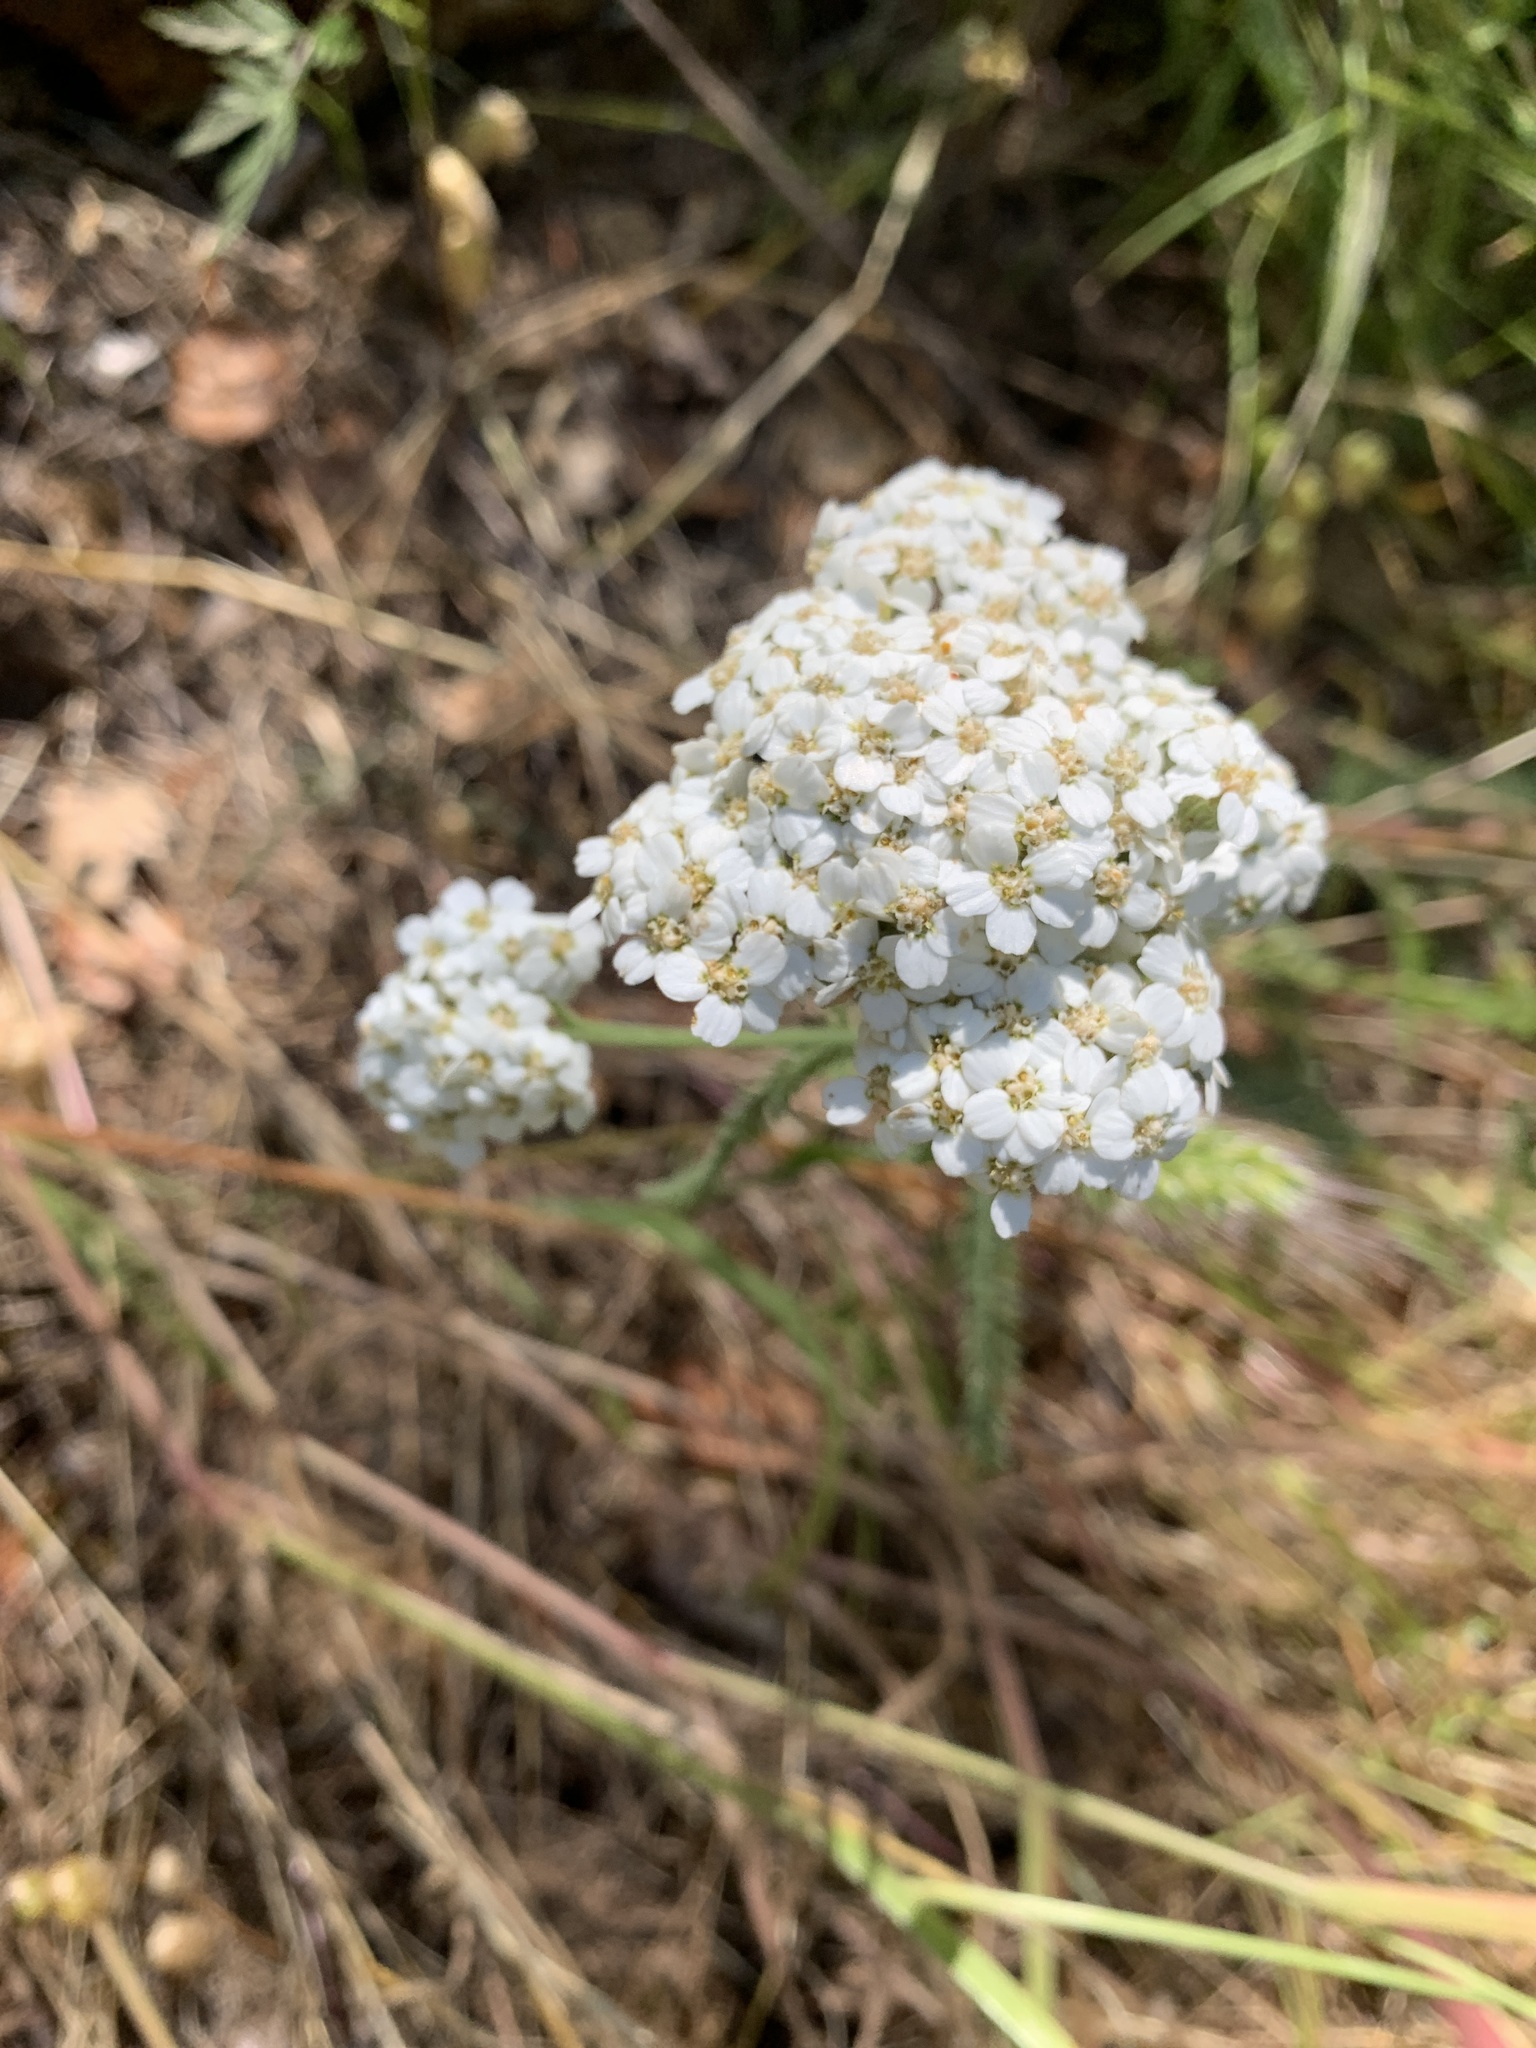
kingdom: Plantae
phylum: Tracheophyta
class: Magnoliopsida
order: Asterales
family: Asteraceae
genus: Achillea
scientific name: Achillea millefolium
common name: Yarrow
